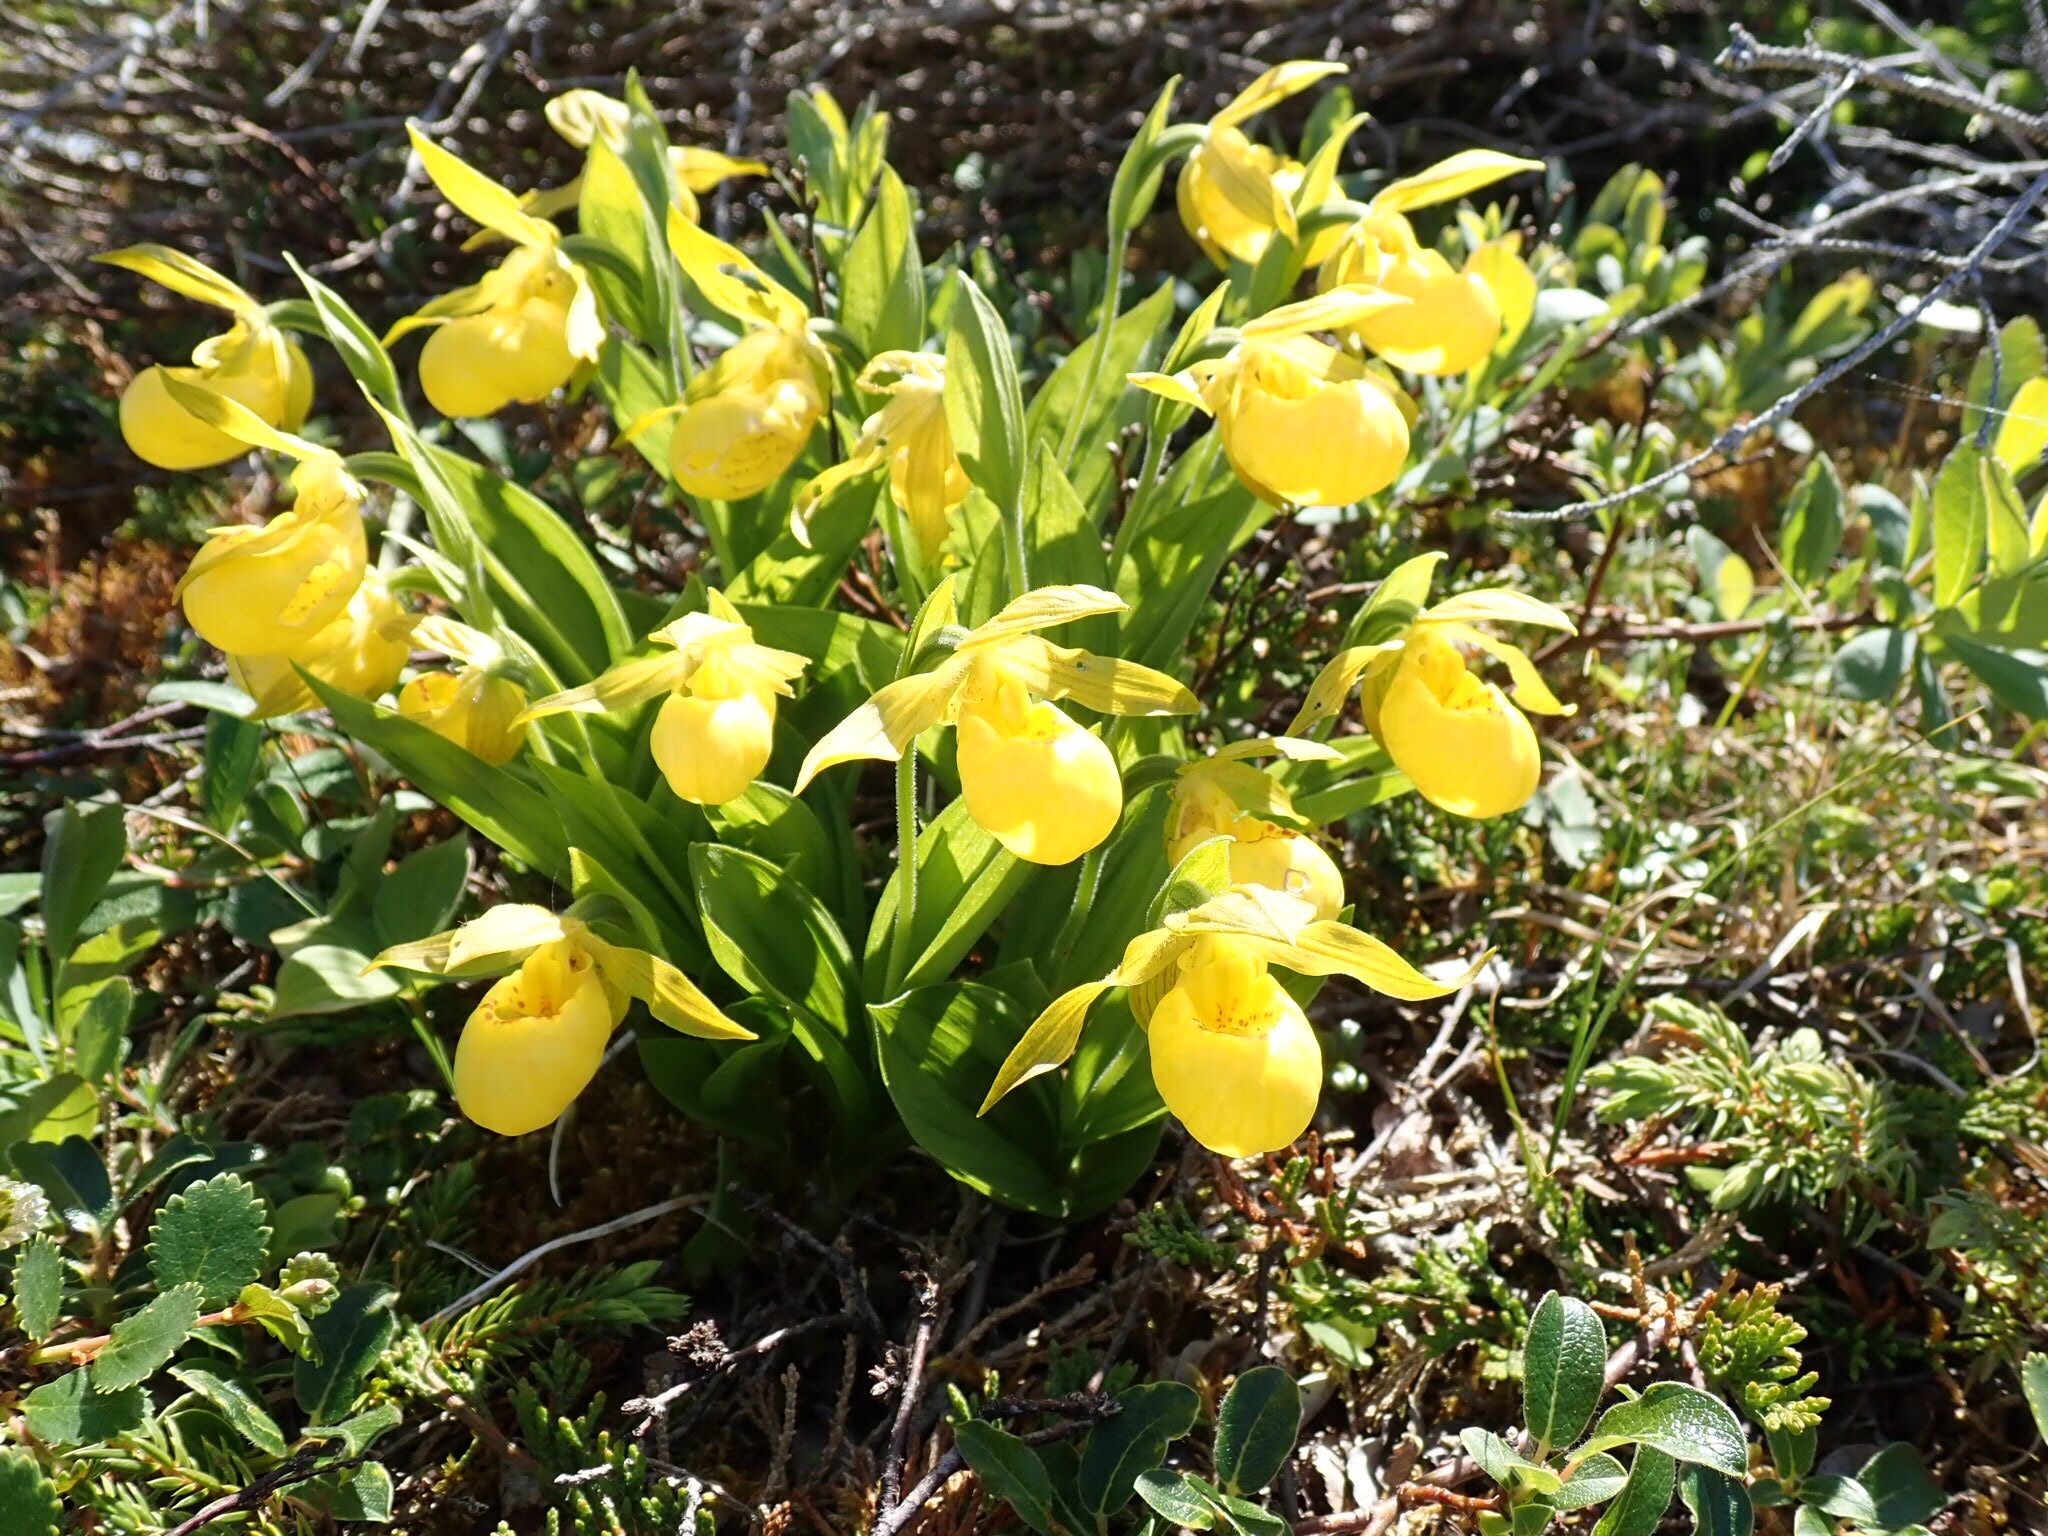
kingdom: Plantae
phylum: Tracheophyta
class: Liliopsida
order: Asparagales
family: Orchidaceae
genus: Cypripedium
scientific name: Cypripedium parviflorum
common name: American yellow lady's-slipper
